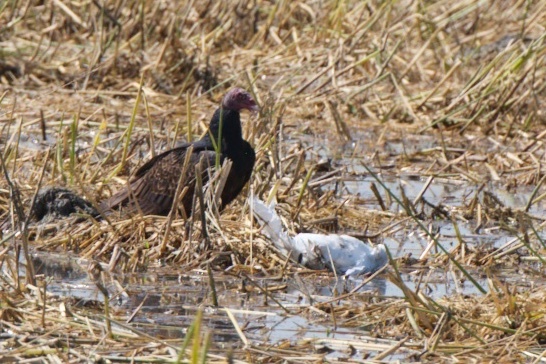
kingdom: Animalia
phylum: Chordata
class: Aves
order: Accipitriformes
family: Cathartidae
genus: Cathartes
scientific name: Cathartes aura
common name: Turkey vulture
